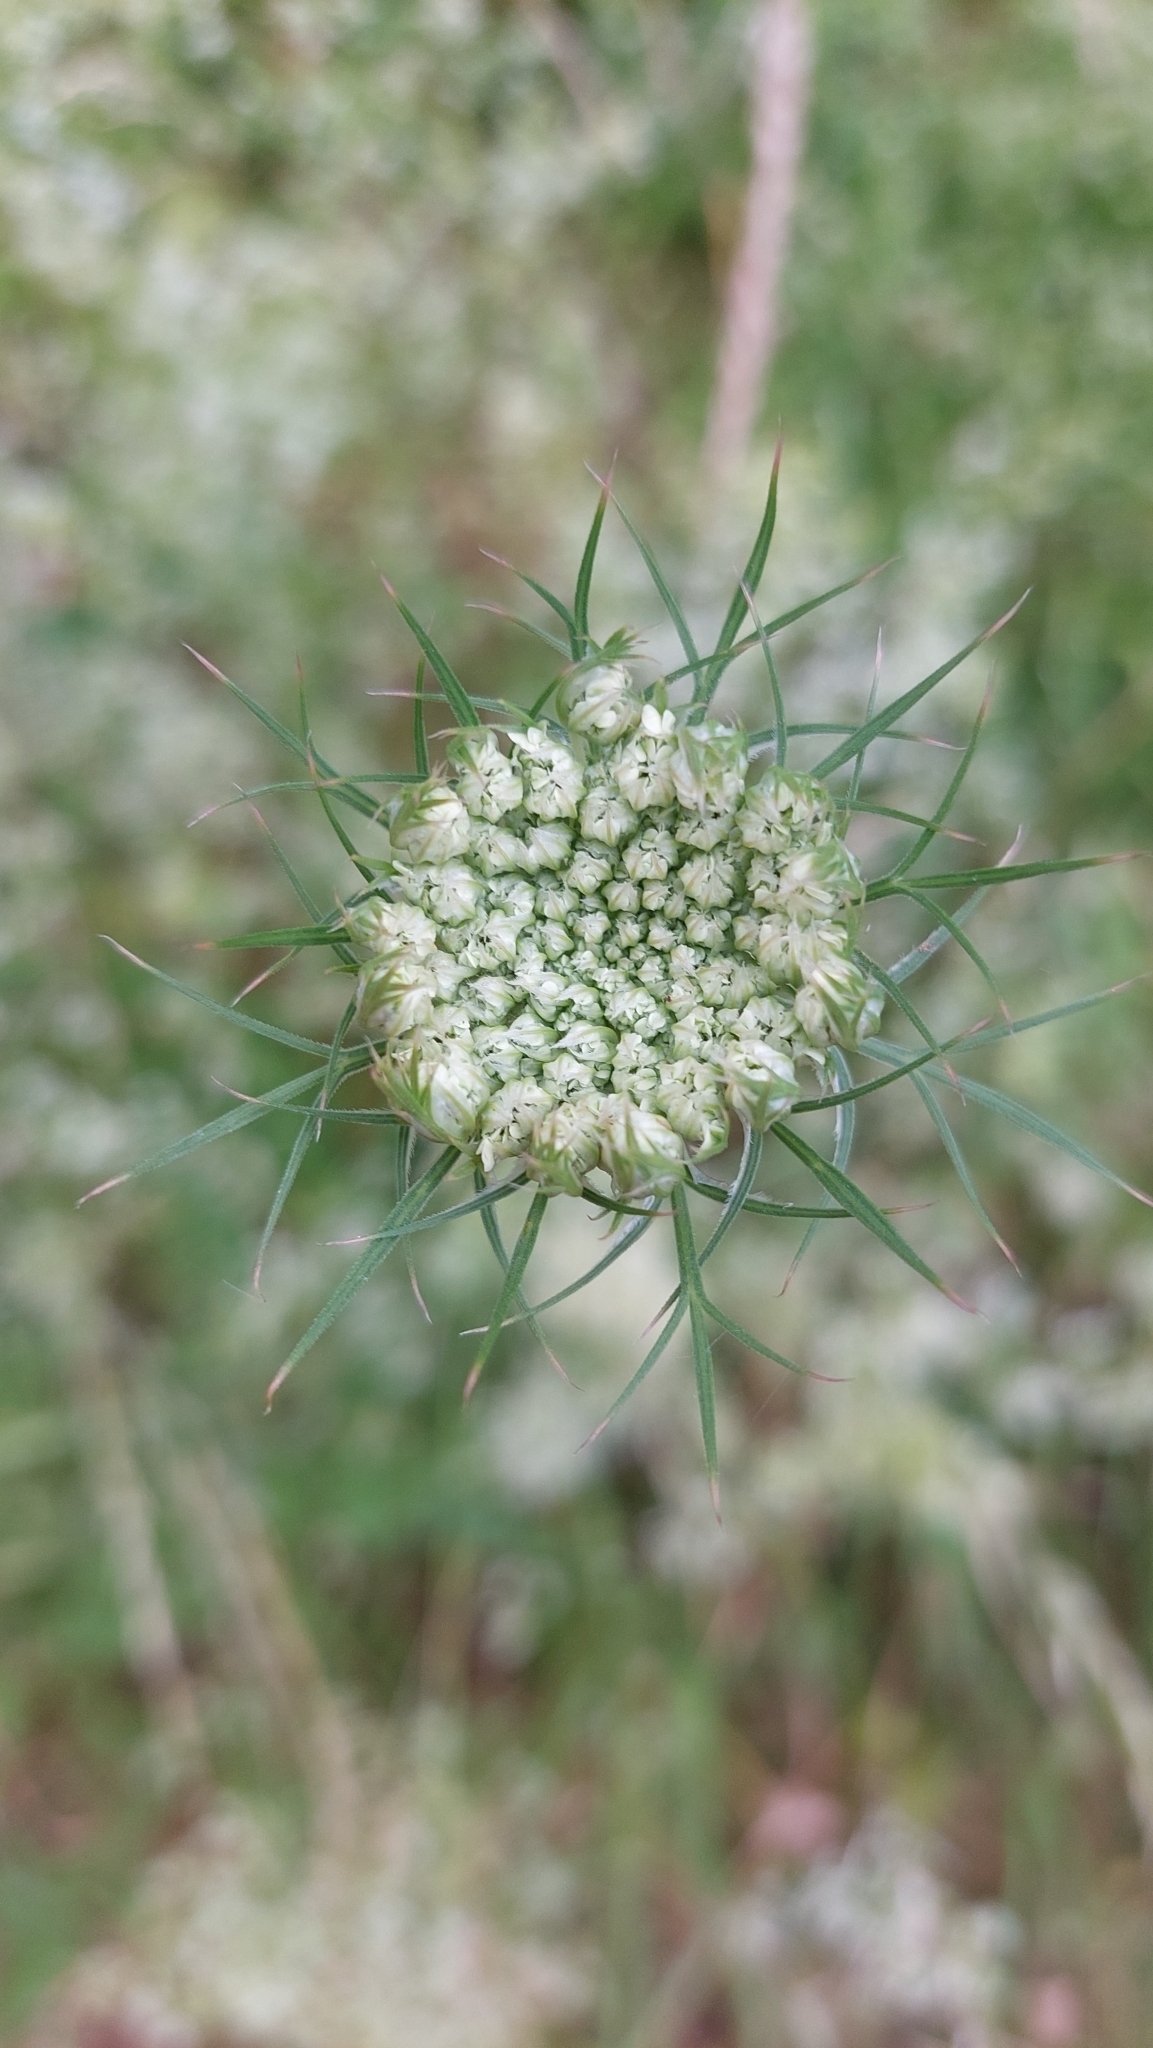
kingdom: Plantae
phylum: Tracheophyta
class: Magnoliopsida
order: Apiales
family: Apiaceae
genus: Daucus
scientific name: Daucus carota
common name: Wild carrot
